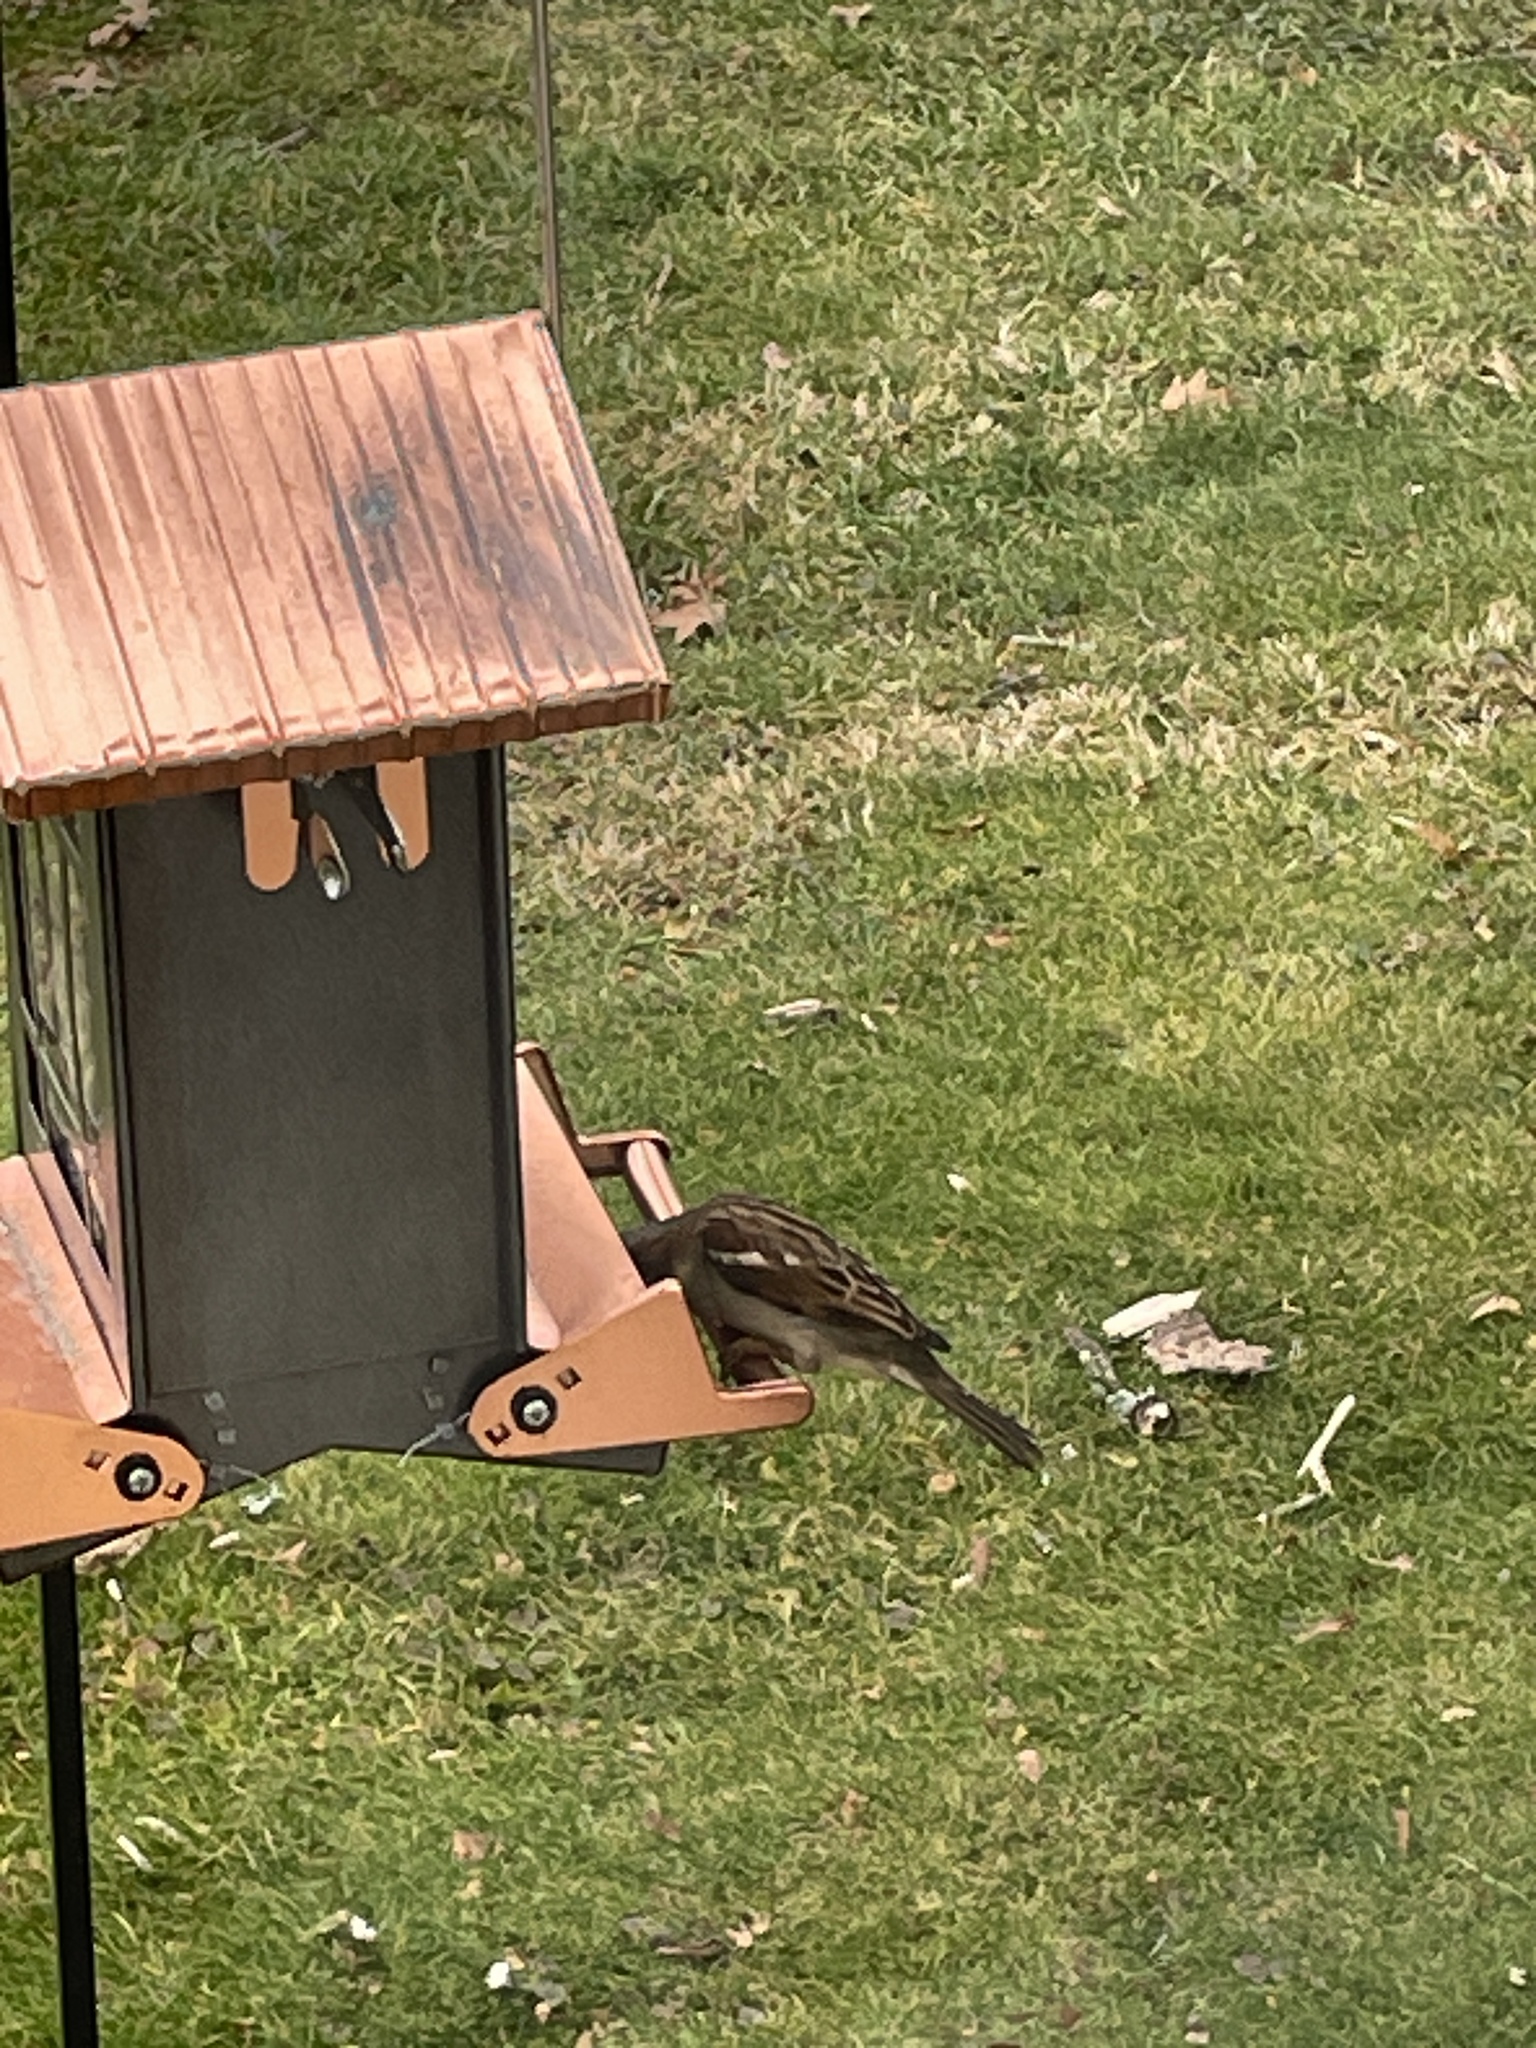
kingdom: Animalia
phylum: Chordata
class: Aves
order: Passeriformes
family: Passeridae
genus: Passer
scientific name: Passer domesticus
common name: House sparrow
